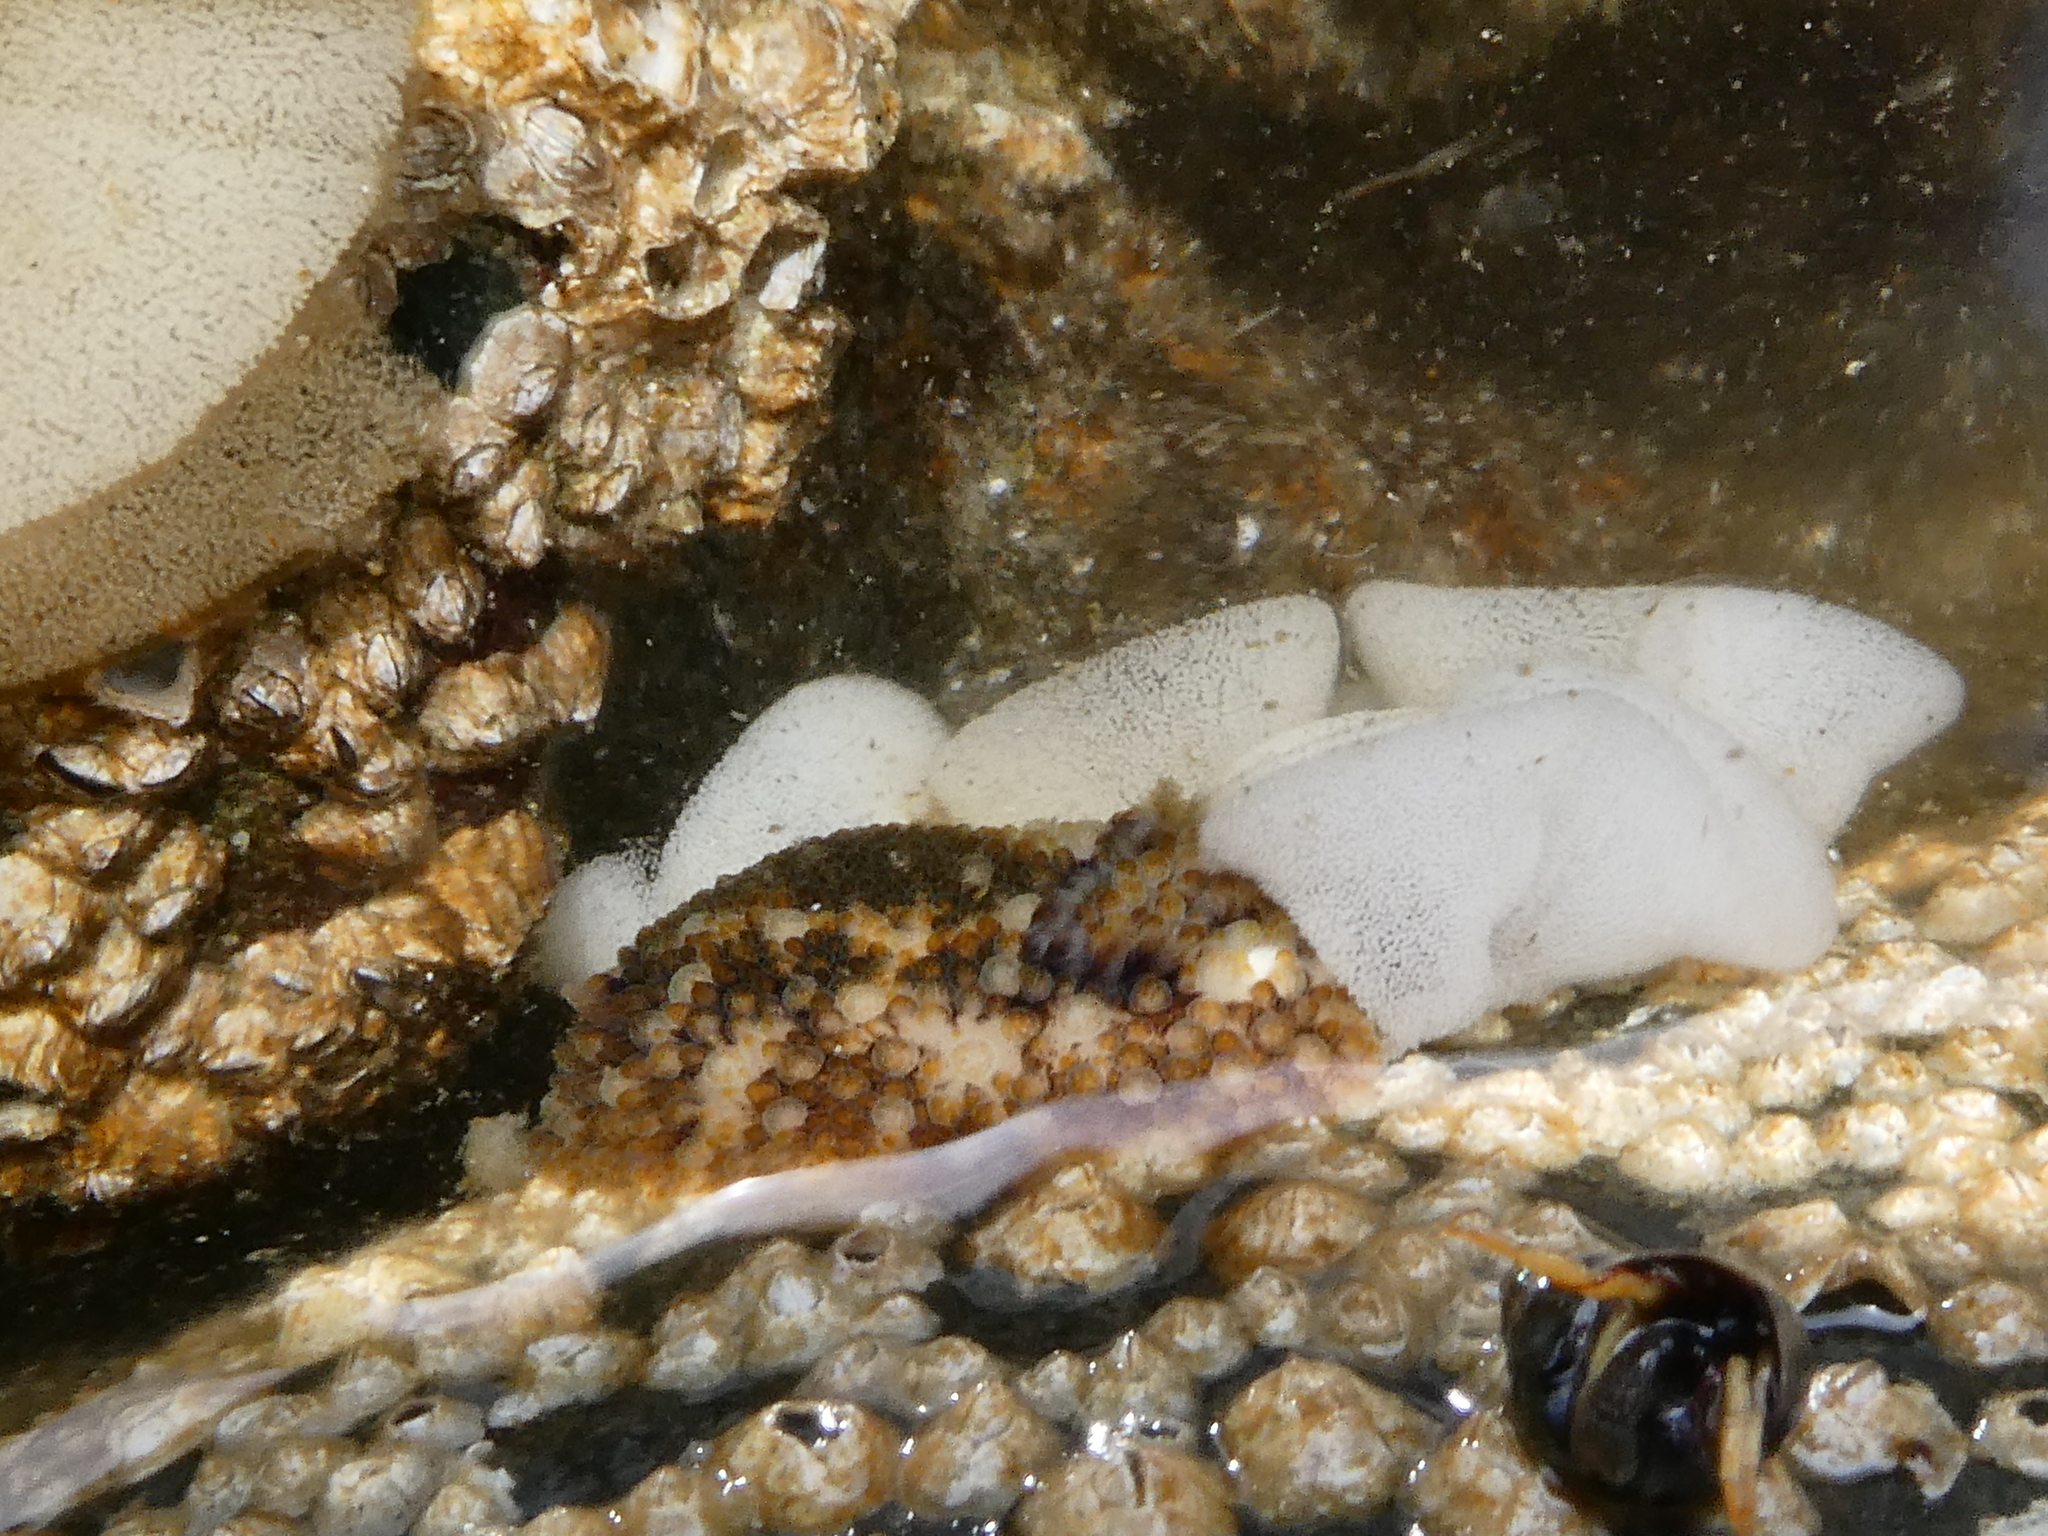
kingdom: Animalia
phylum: Mollusca
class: Gastropoda
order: Nudibranchia
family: Onchidorididae
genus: Onchidoris
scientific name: Onchidoris bilamellata
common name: Barnacle-eating onchidoris
